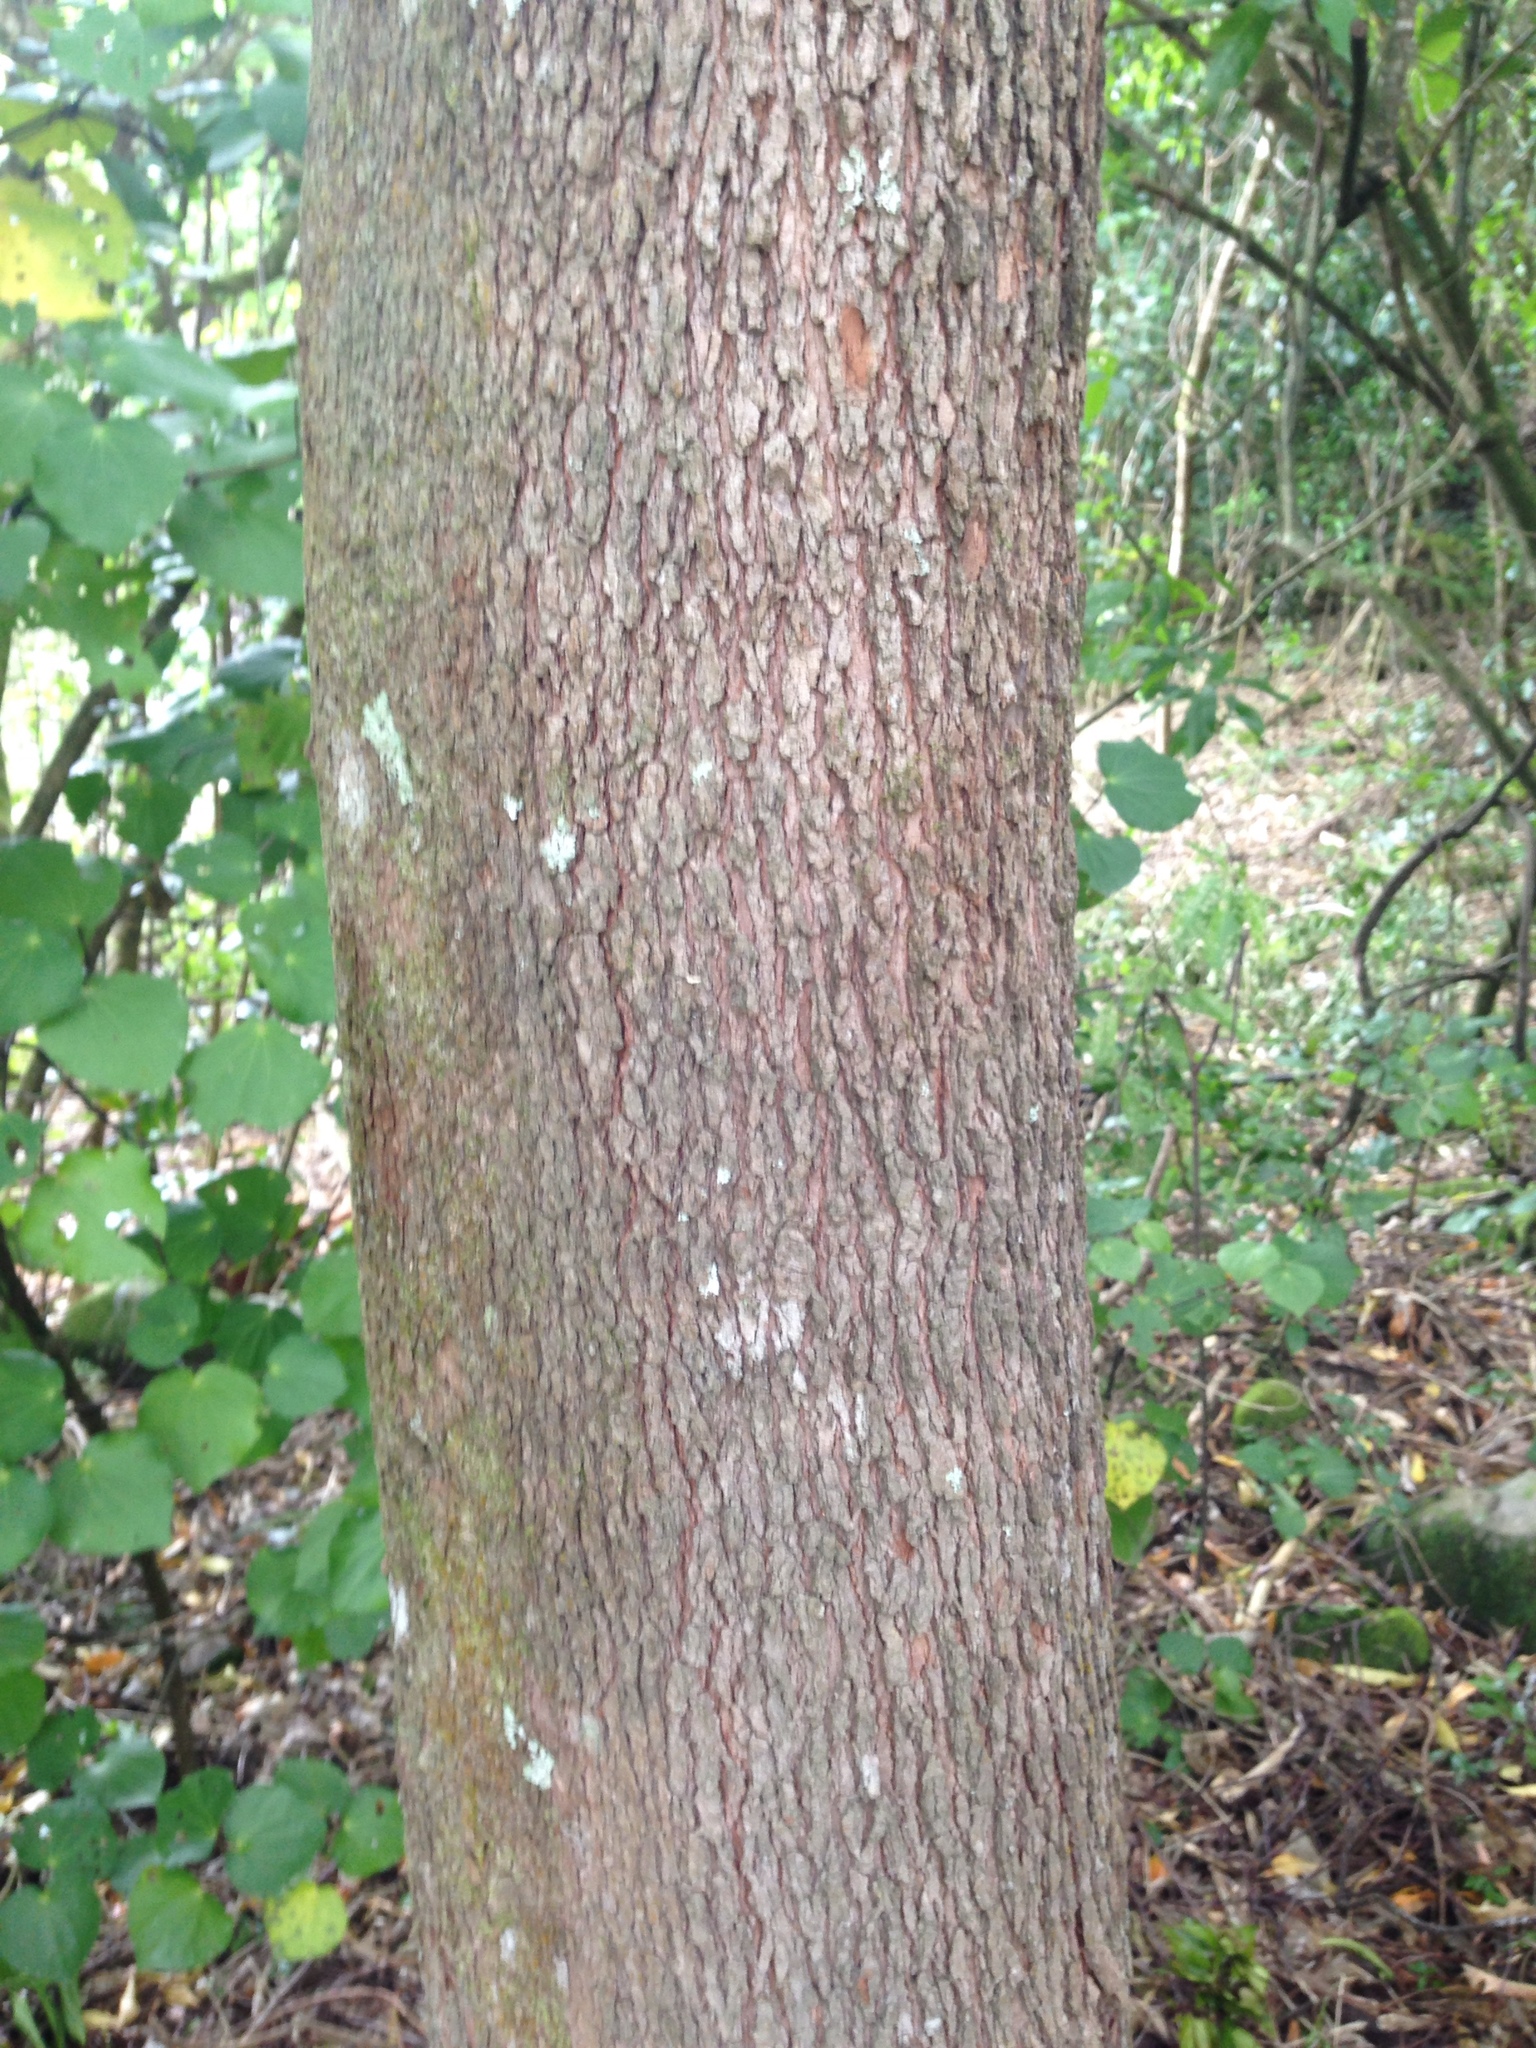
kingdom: Plantae
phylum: Tracheophyta
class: Magnoliopsida
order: Myrtales
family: Myrtaceae
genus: Syzygium
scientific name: Syzygium smithii
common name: Lilly-pilly
